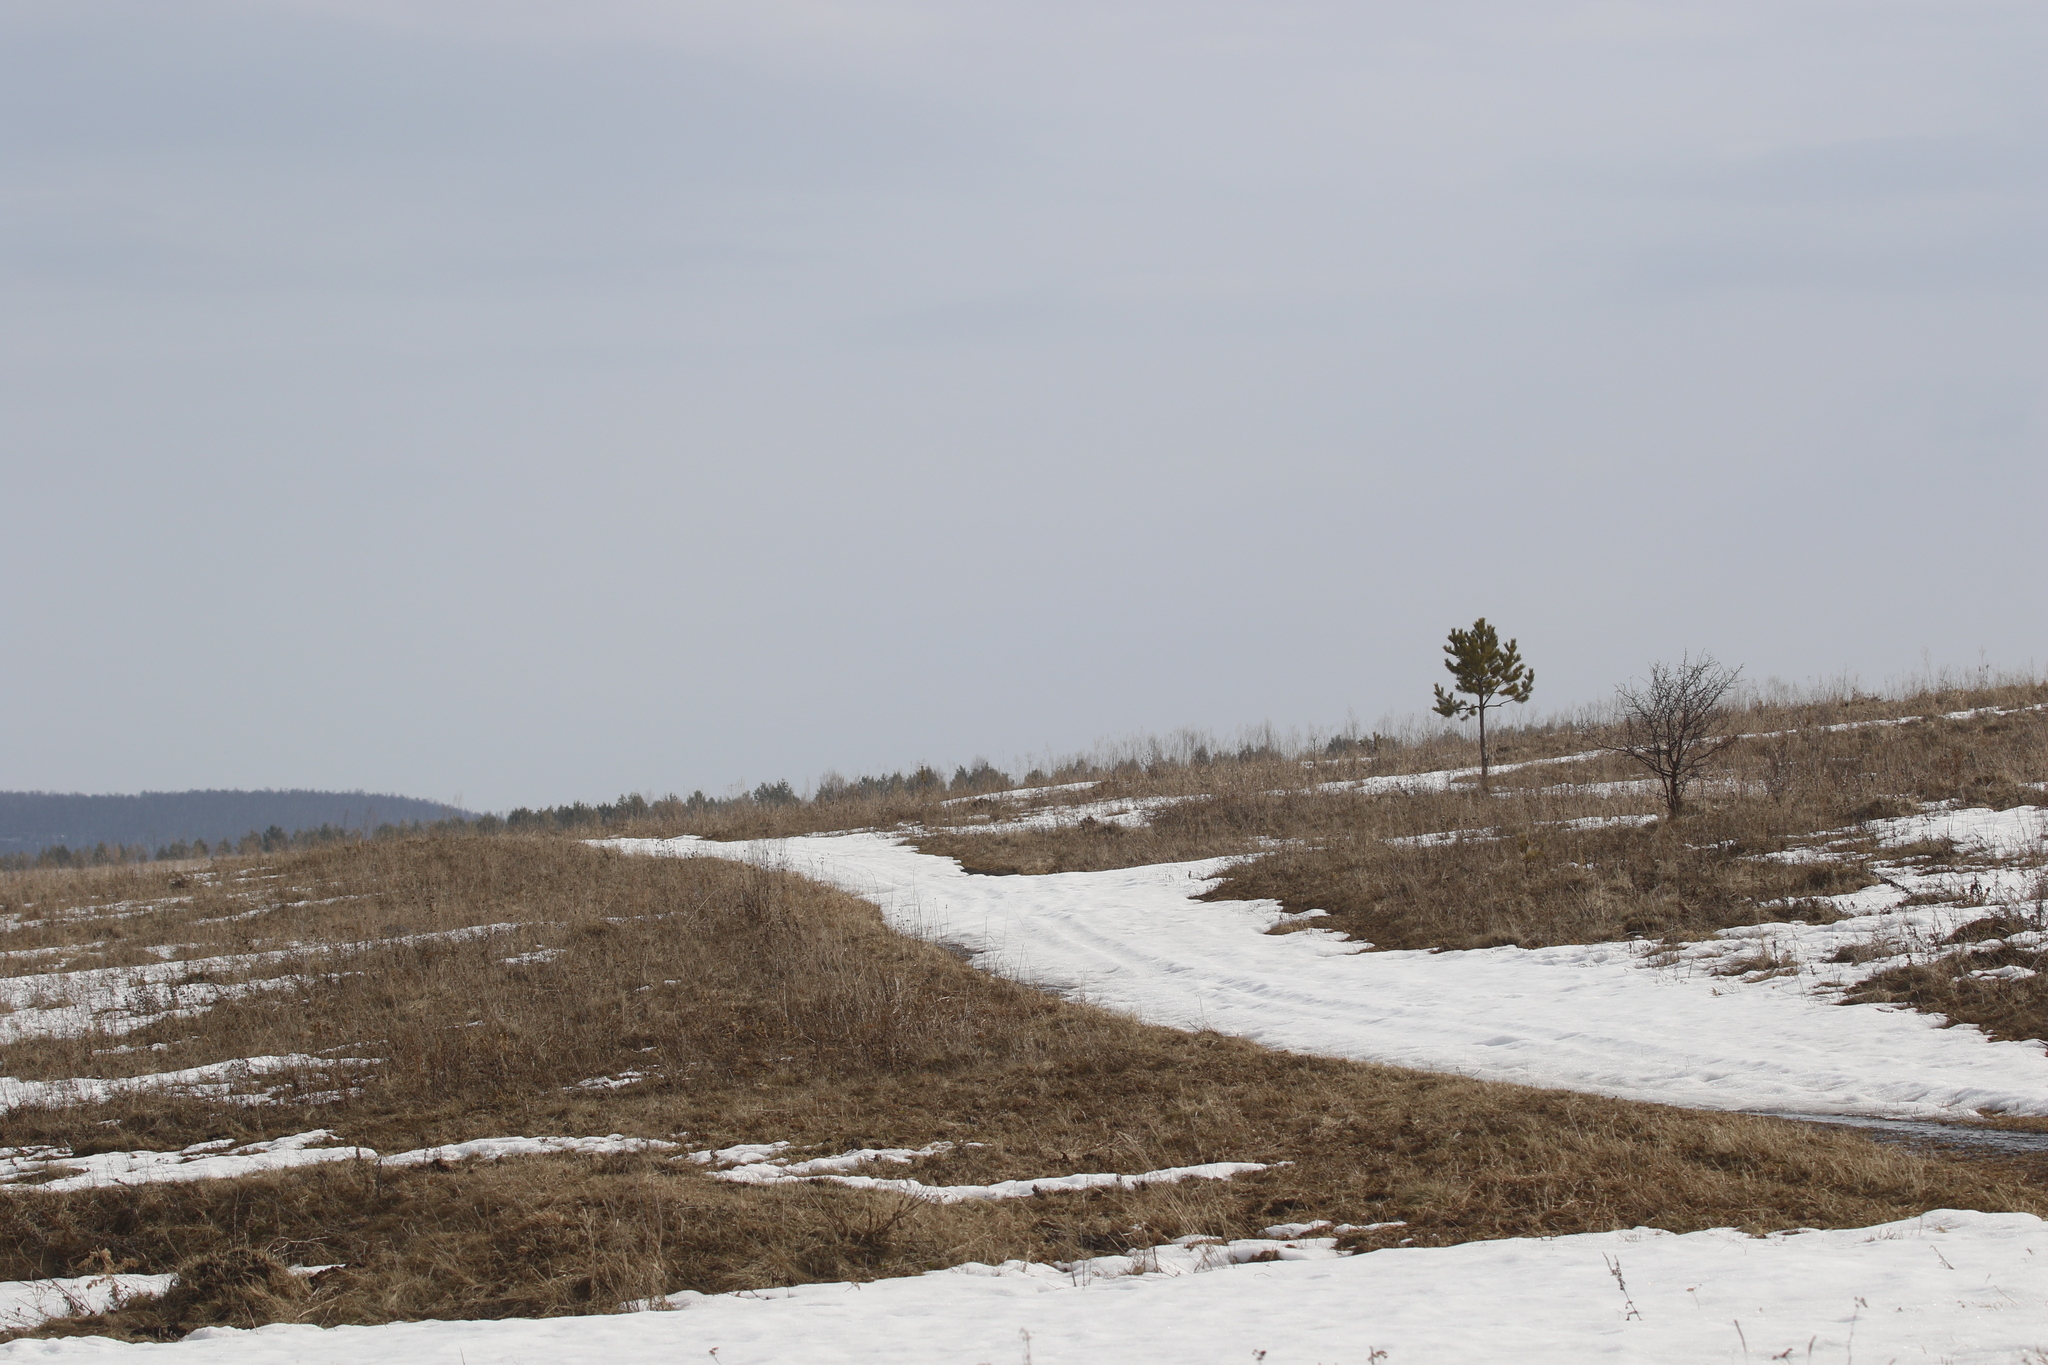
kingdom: Plantae
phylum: Tracheophyta
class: Pinopsida
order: Pinales
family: Pinaceae
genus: Pinus
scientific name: Pinus sylvestris
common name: Scots pine
